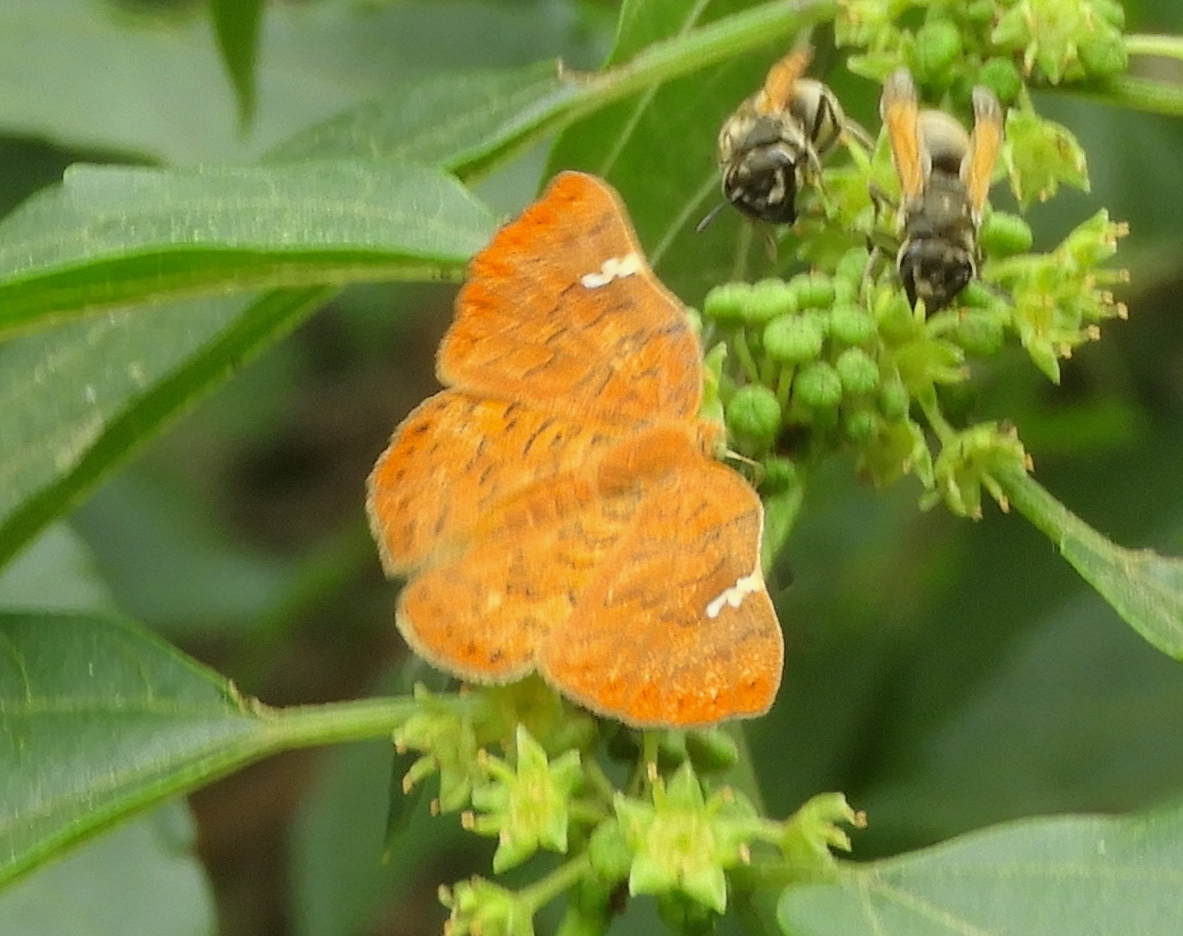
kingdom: Animalia
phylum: Arthropoda
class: Insecta
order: Lepidoptera
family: Riodinidae
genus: Curvie
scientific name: Curvie emesia
